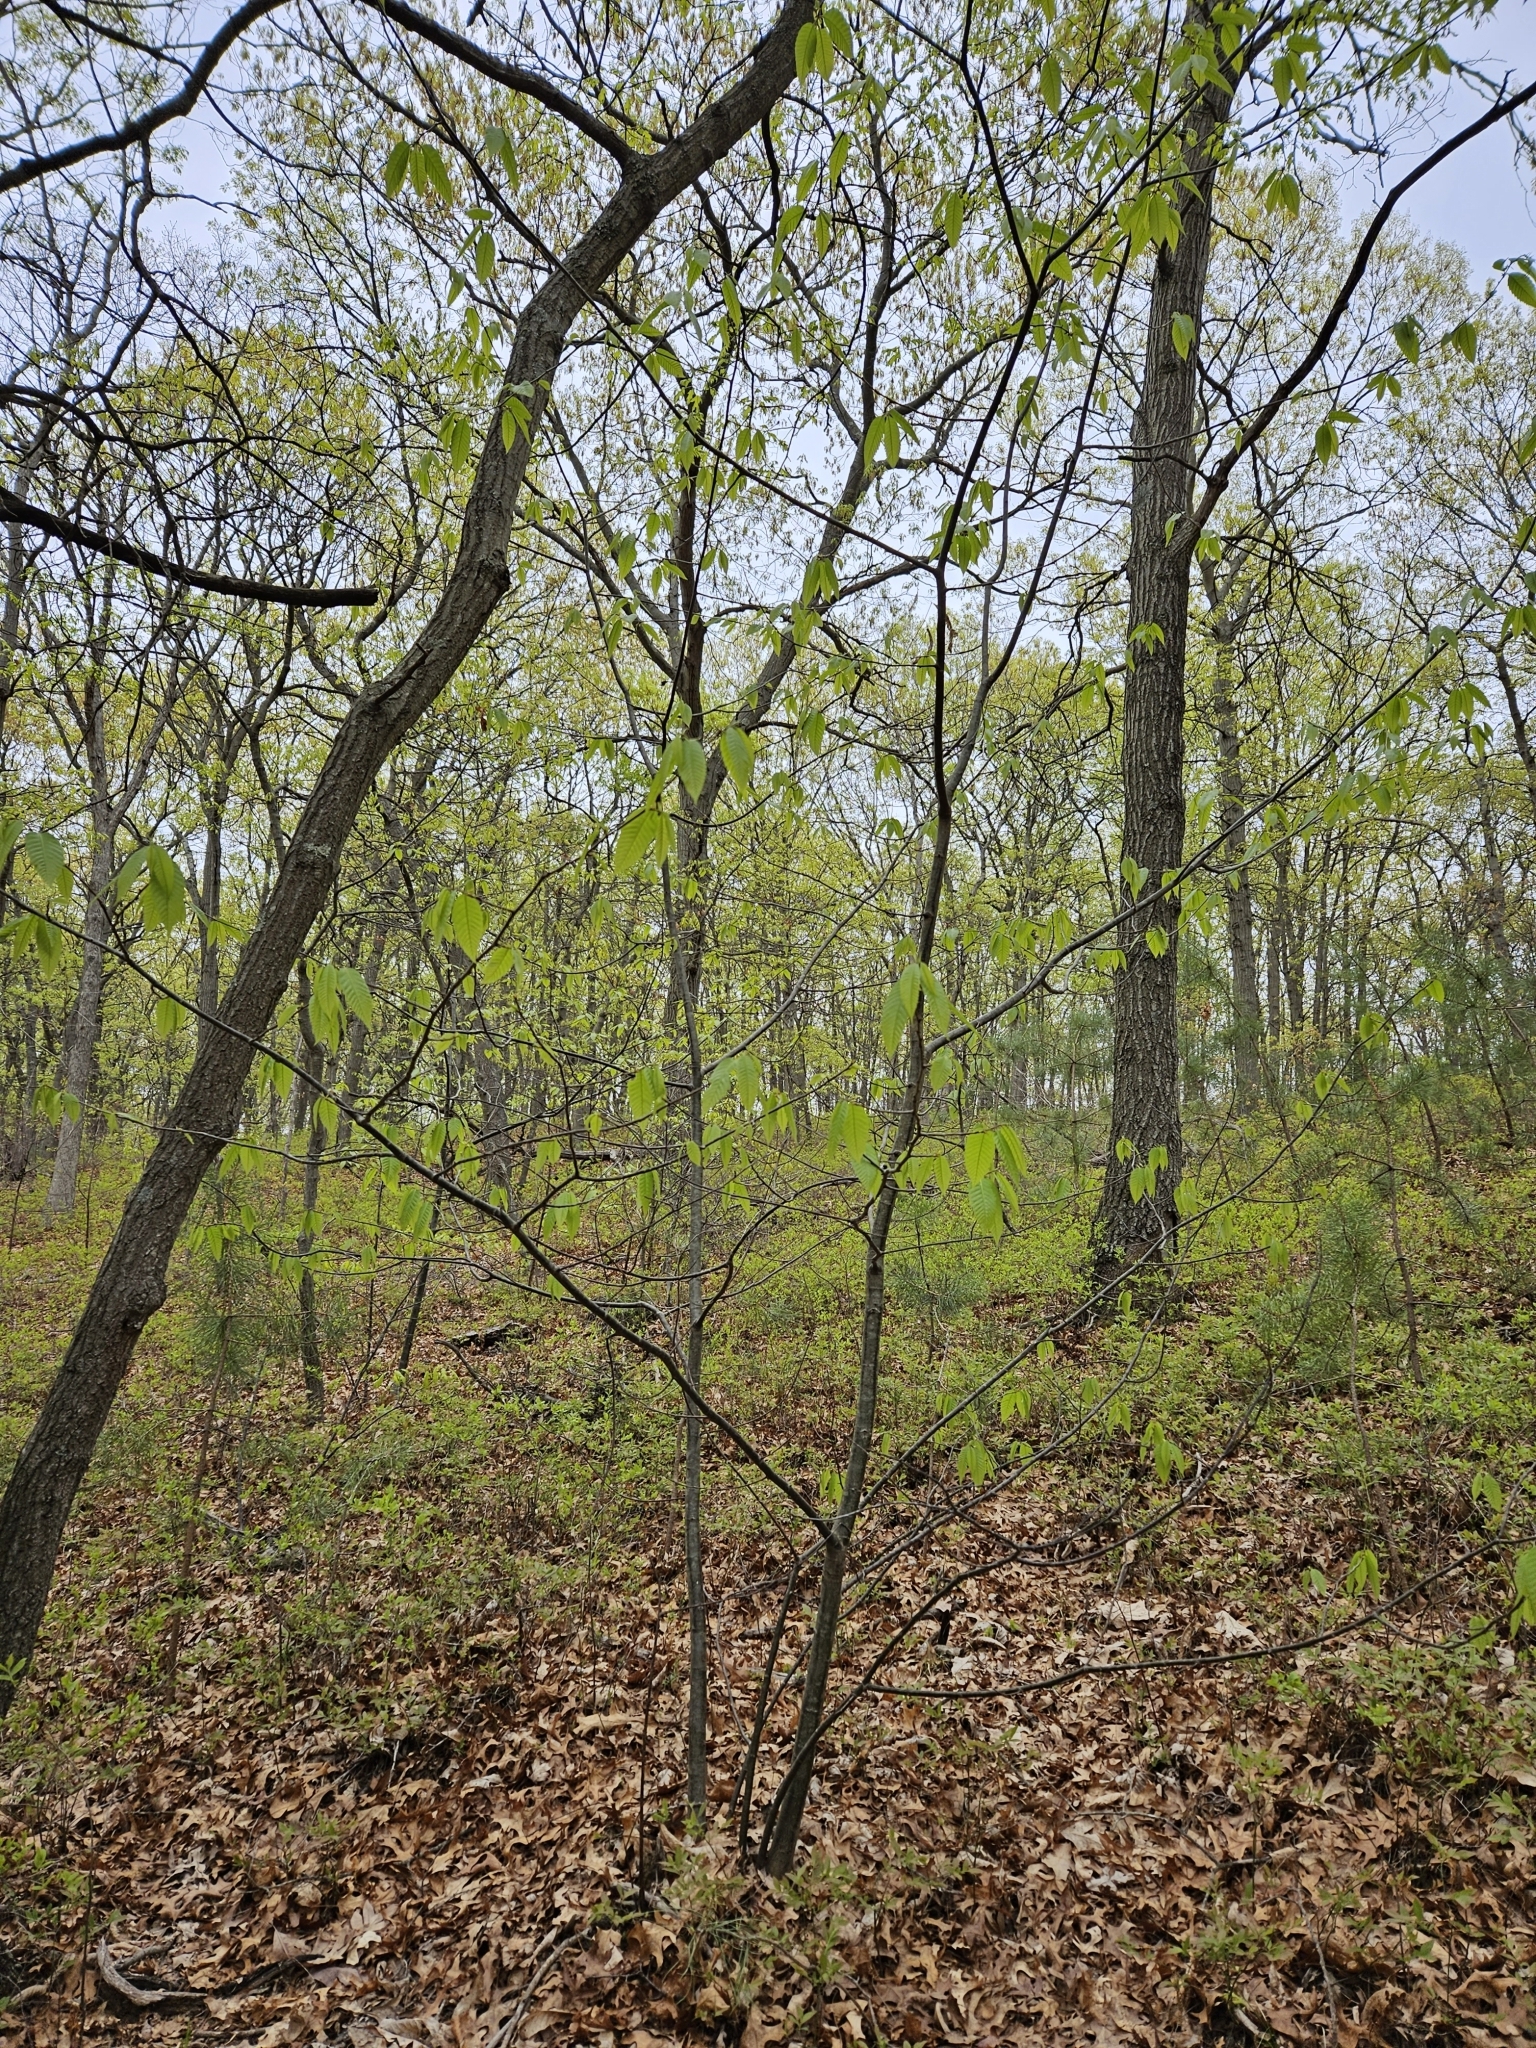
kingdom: Plantae
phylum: Tracheophyta
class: Magnoliopsida
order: Fagales
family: Fagaceae
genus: Castanea
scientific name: Castanea dentata
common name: American chestnut
